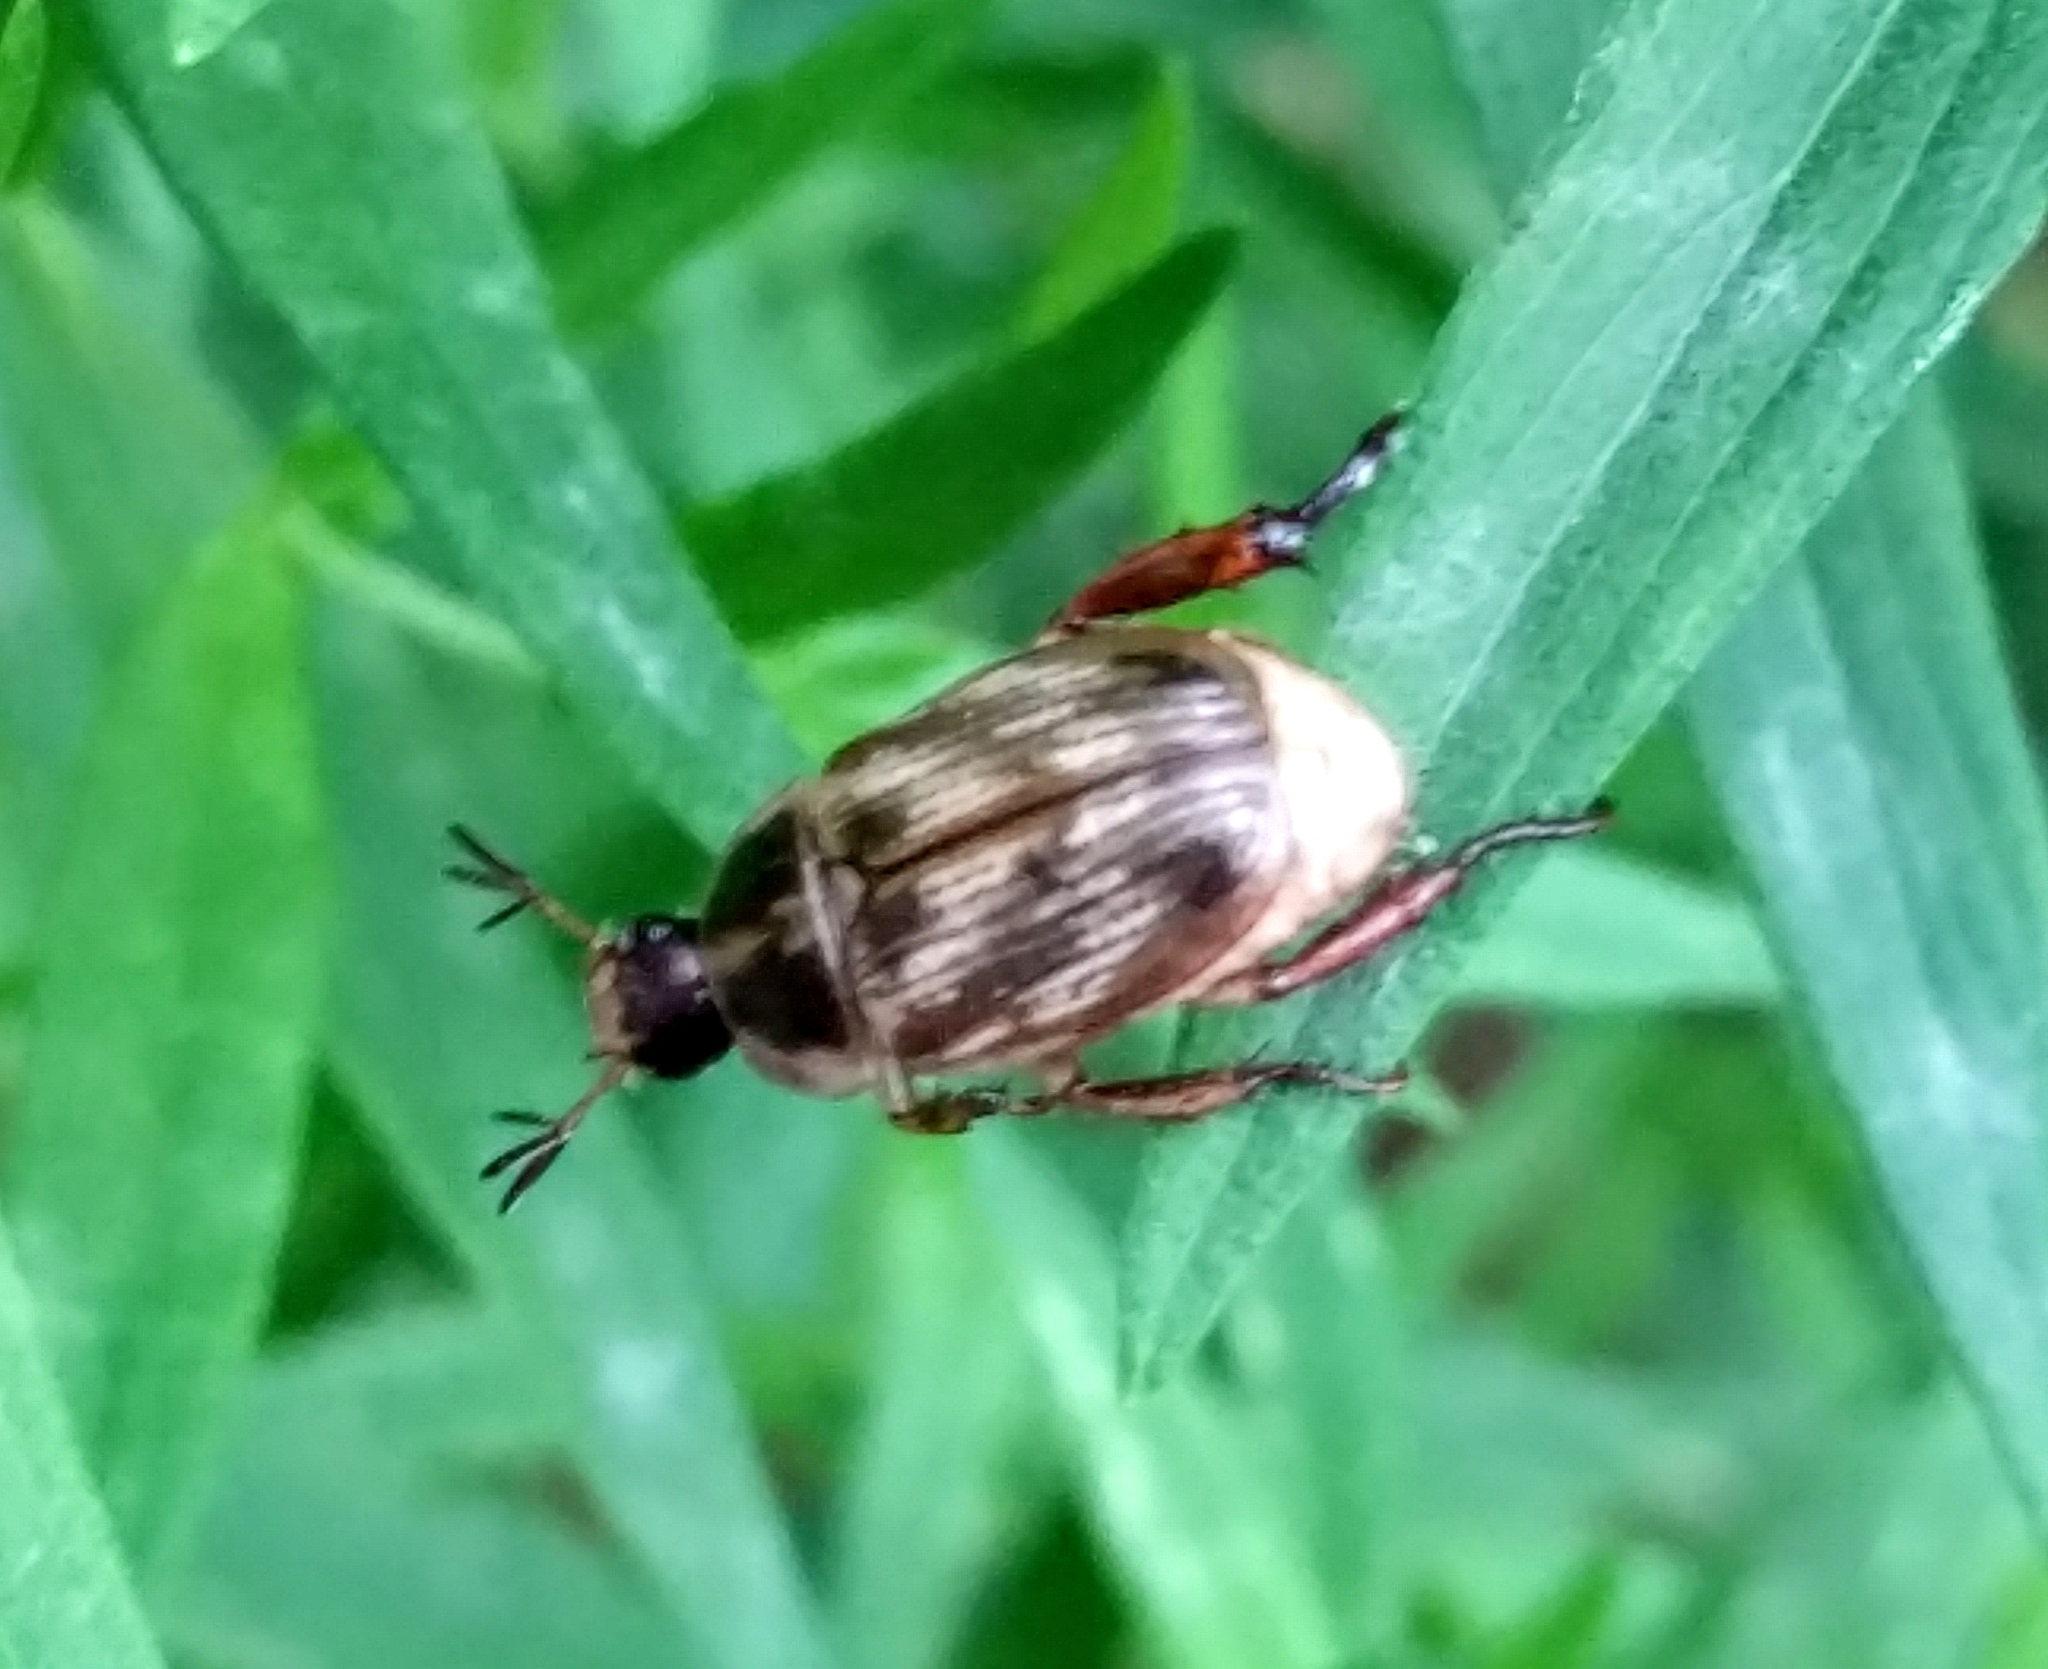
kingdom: Animalia
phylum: Arthropoda
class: Insecta
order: Coleoptera
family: Scarabaeidae
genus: Exomala
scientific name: Exomala orientalis
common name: Oriental beetle
